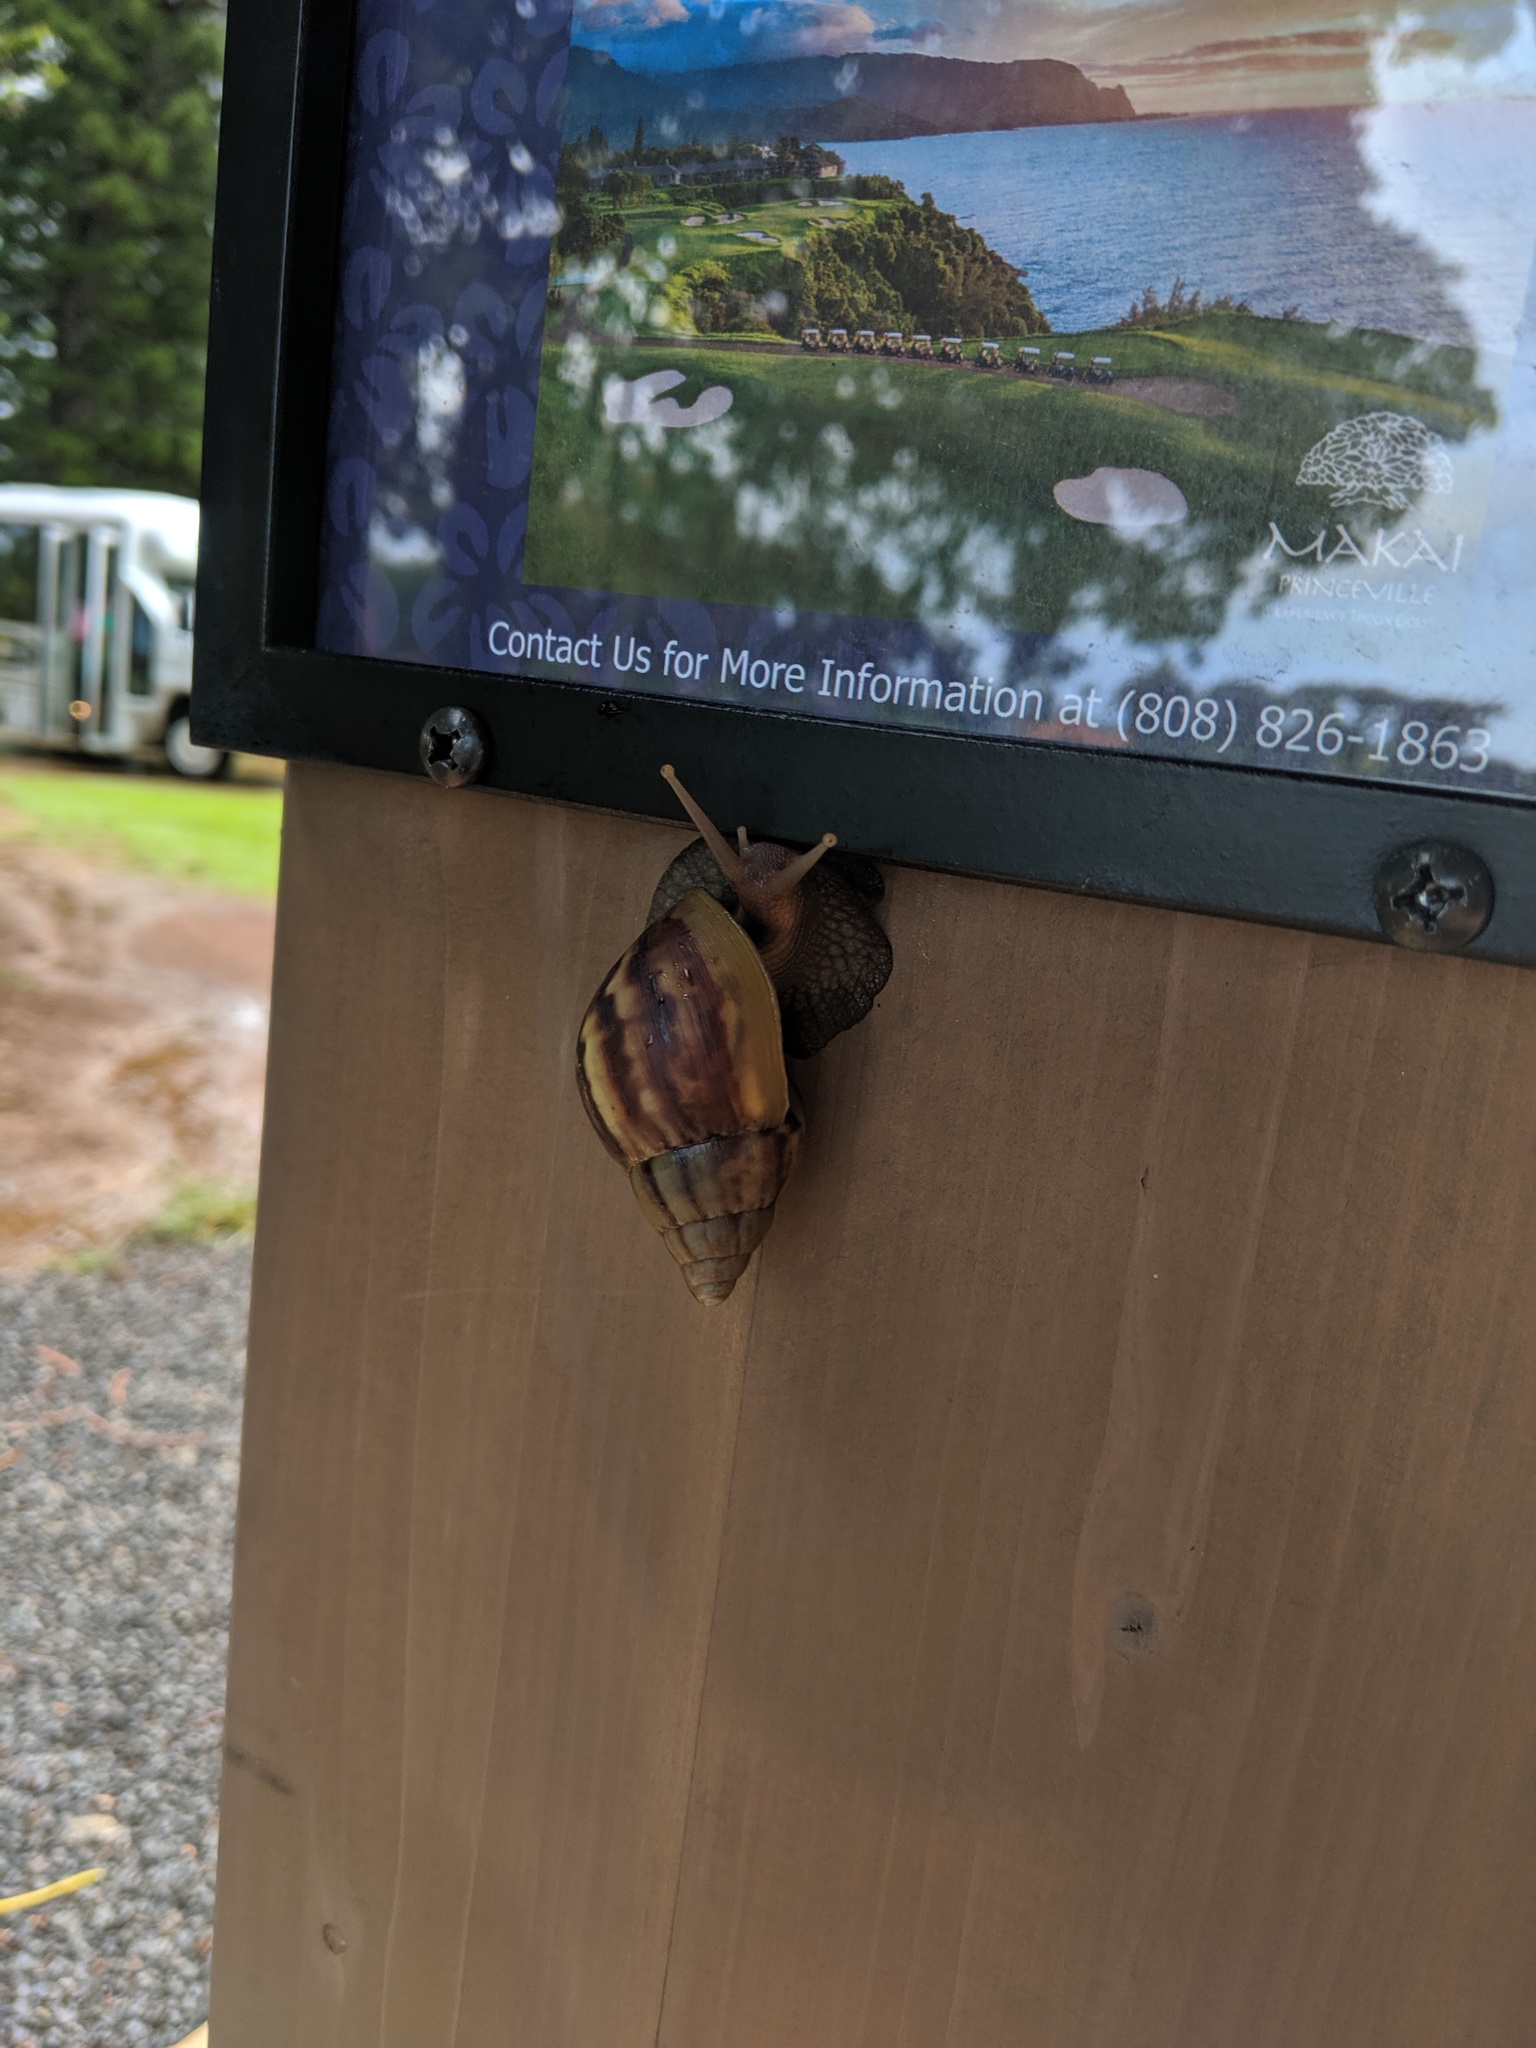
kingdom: Animalia
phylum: Mollusca
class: Gastropoda
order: Stylommatophora
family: Achatinidae
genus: Lissachatina
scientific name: Lissachatina fulica
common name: Giant african snail
